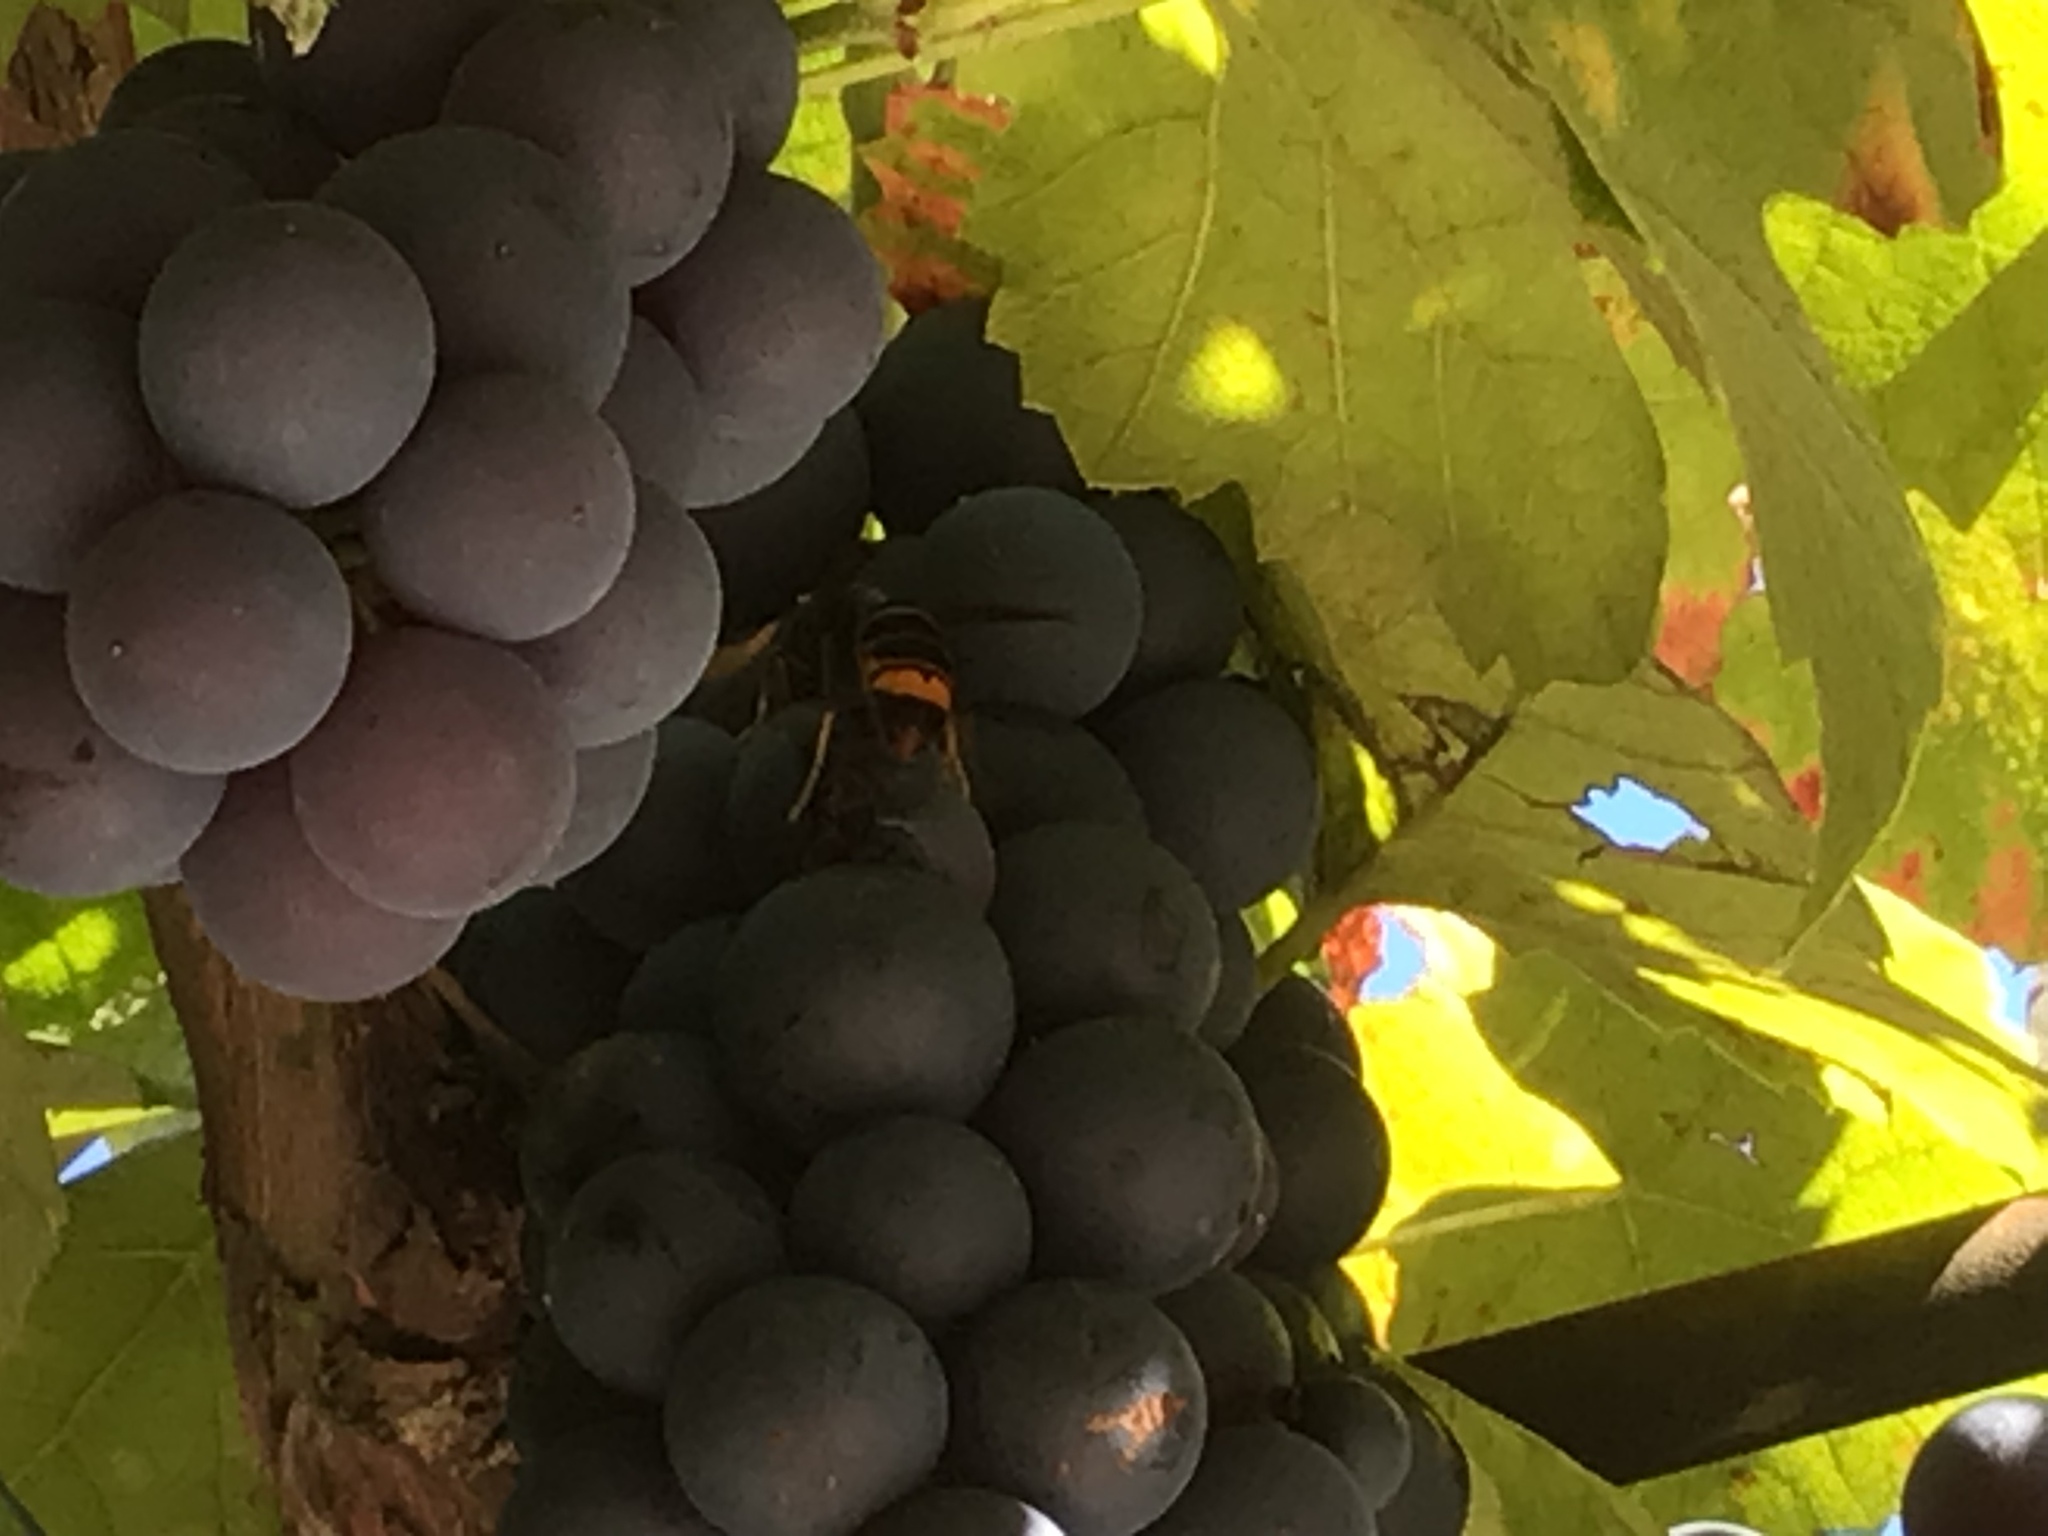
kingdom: Animalia
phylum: Arthropoda
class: Insecta
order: Hymenoptera
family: Vespidae
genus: Vespa
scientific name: Vespa velutina
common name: Asian hornet
